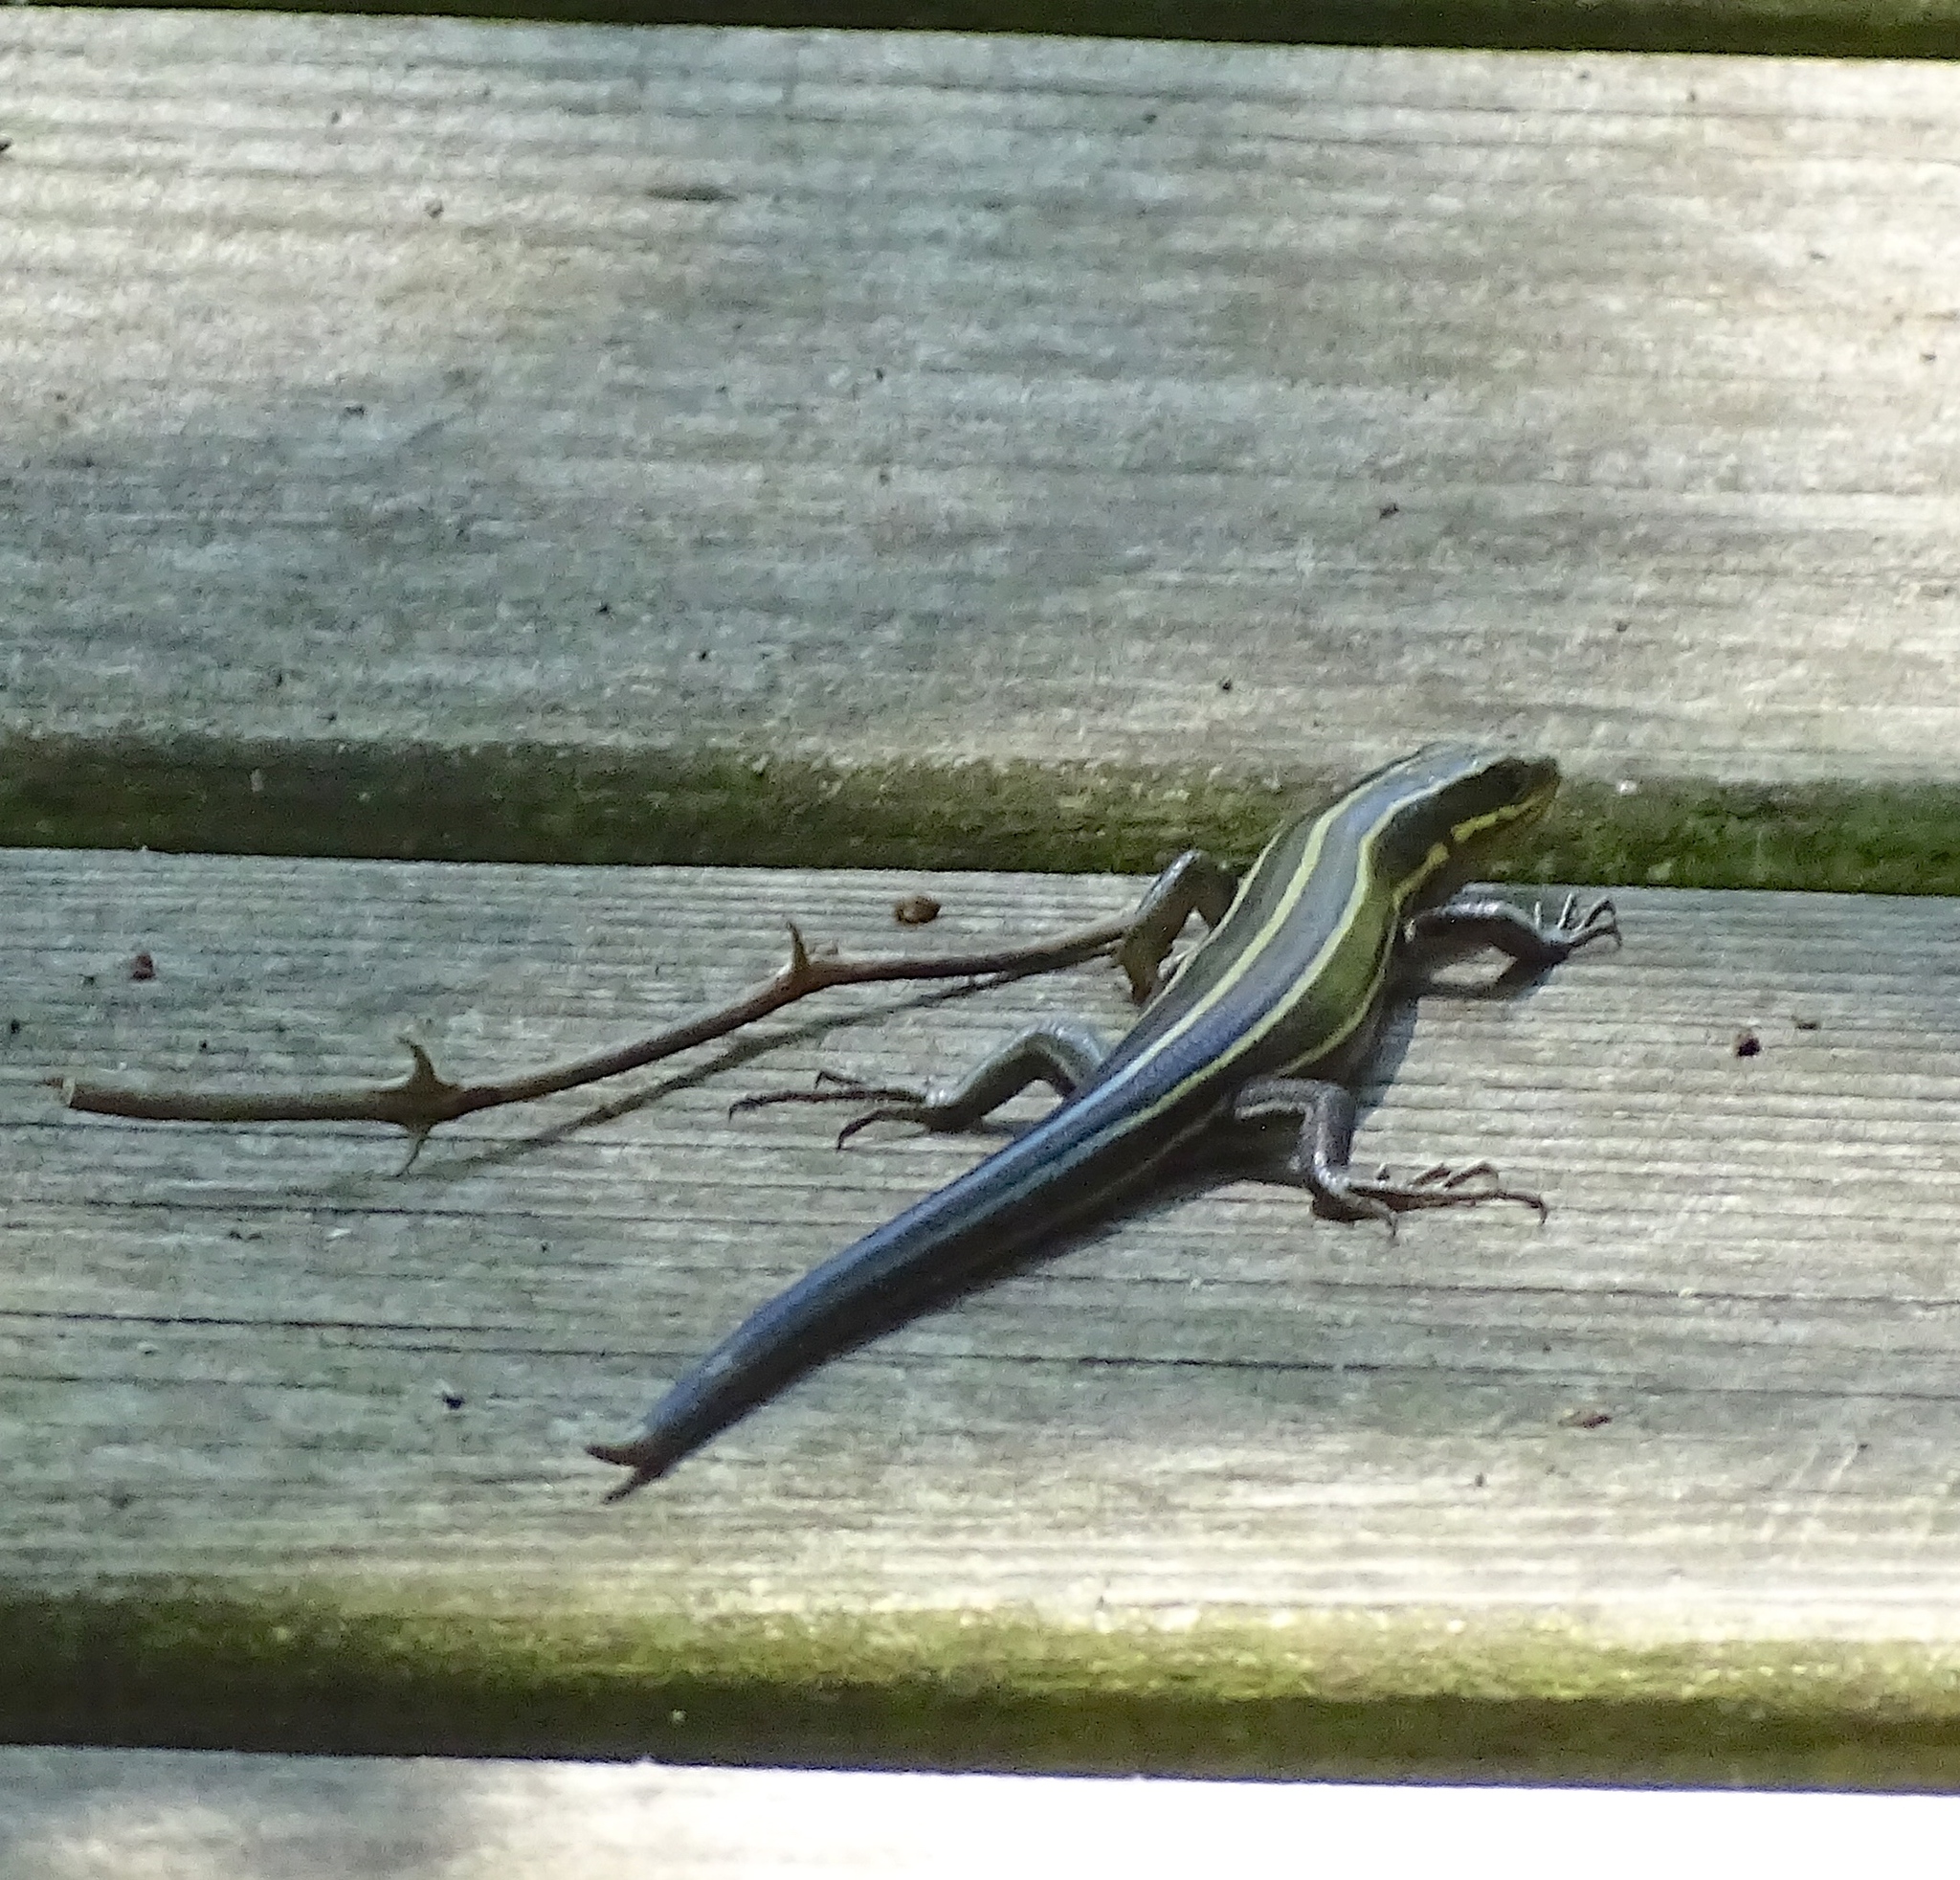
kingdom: Animalia
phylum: Chordata
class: Squamata
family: Scincidae
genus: Plestiodon
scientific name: Plestiodon fasciatus
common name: Five-lined skink
